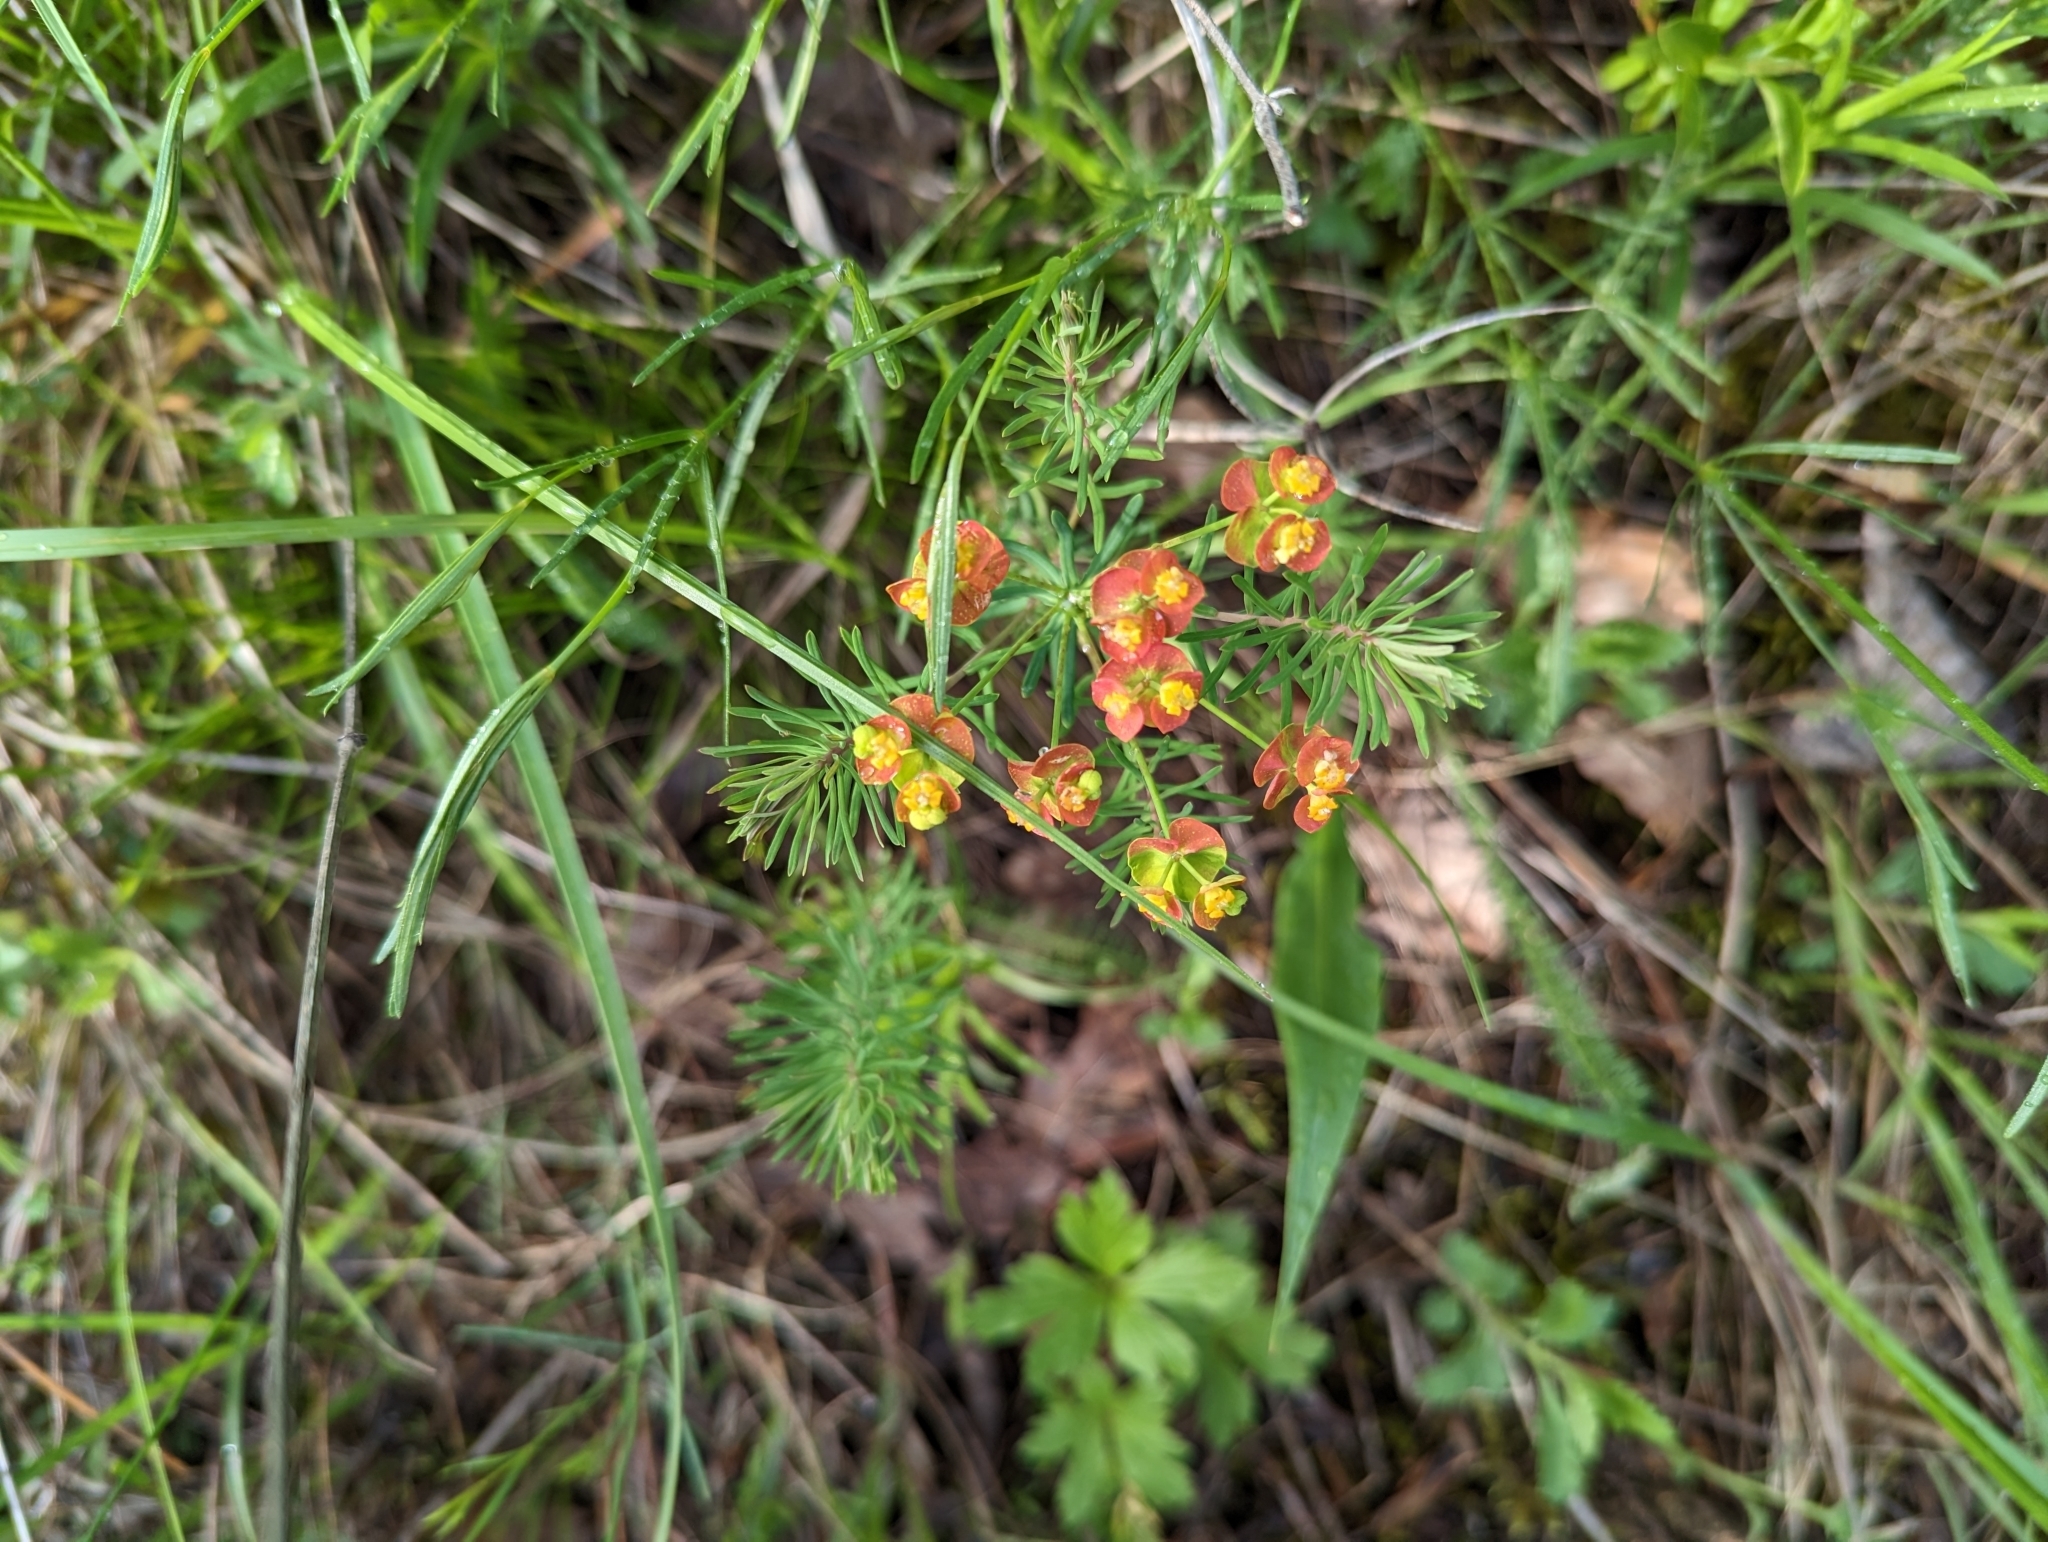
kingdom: Plantae
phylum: Tracheophyta
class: Magnoliopsida
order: Malpighiales
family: Euphorbiaceae
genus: Euphorbia
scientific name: Euphorbia cyparissias
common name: Cypress spurge
